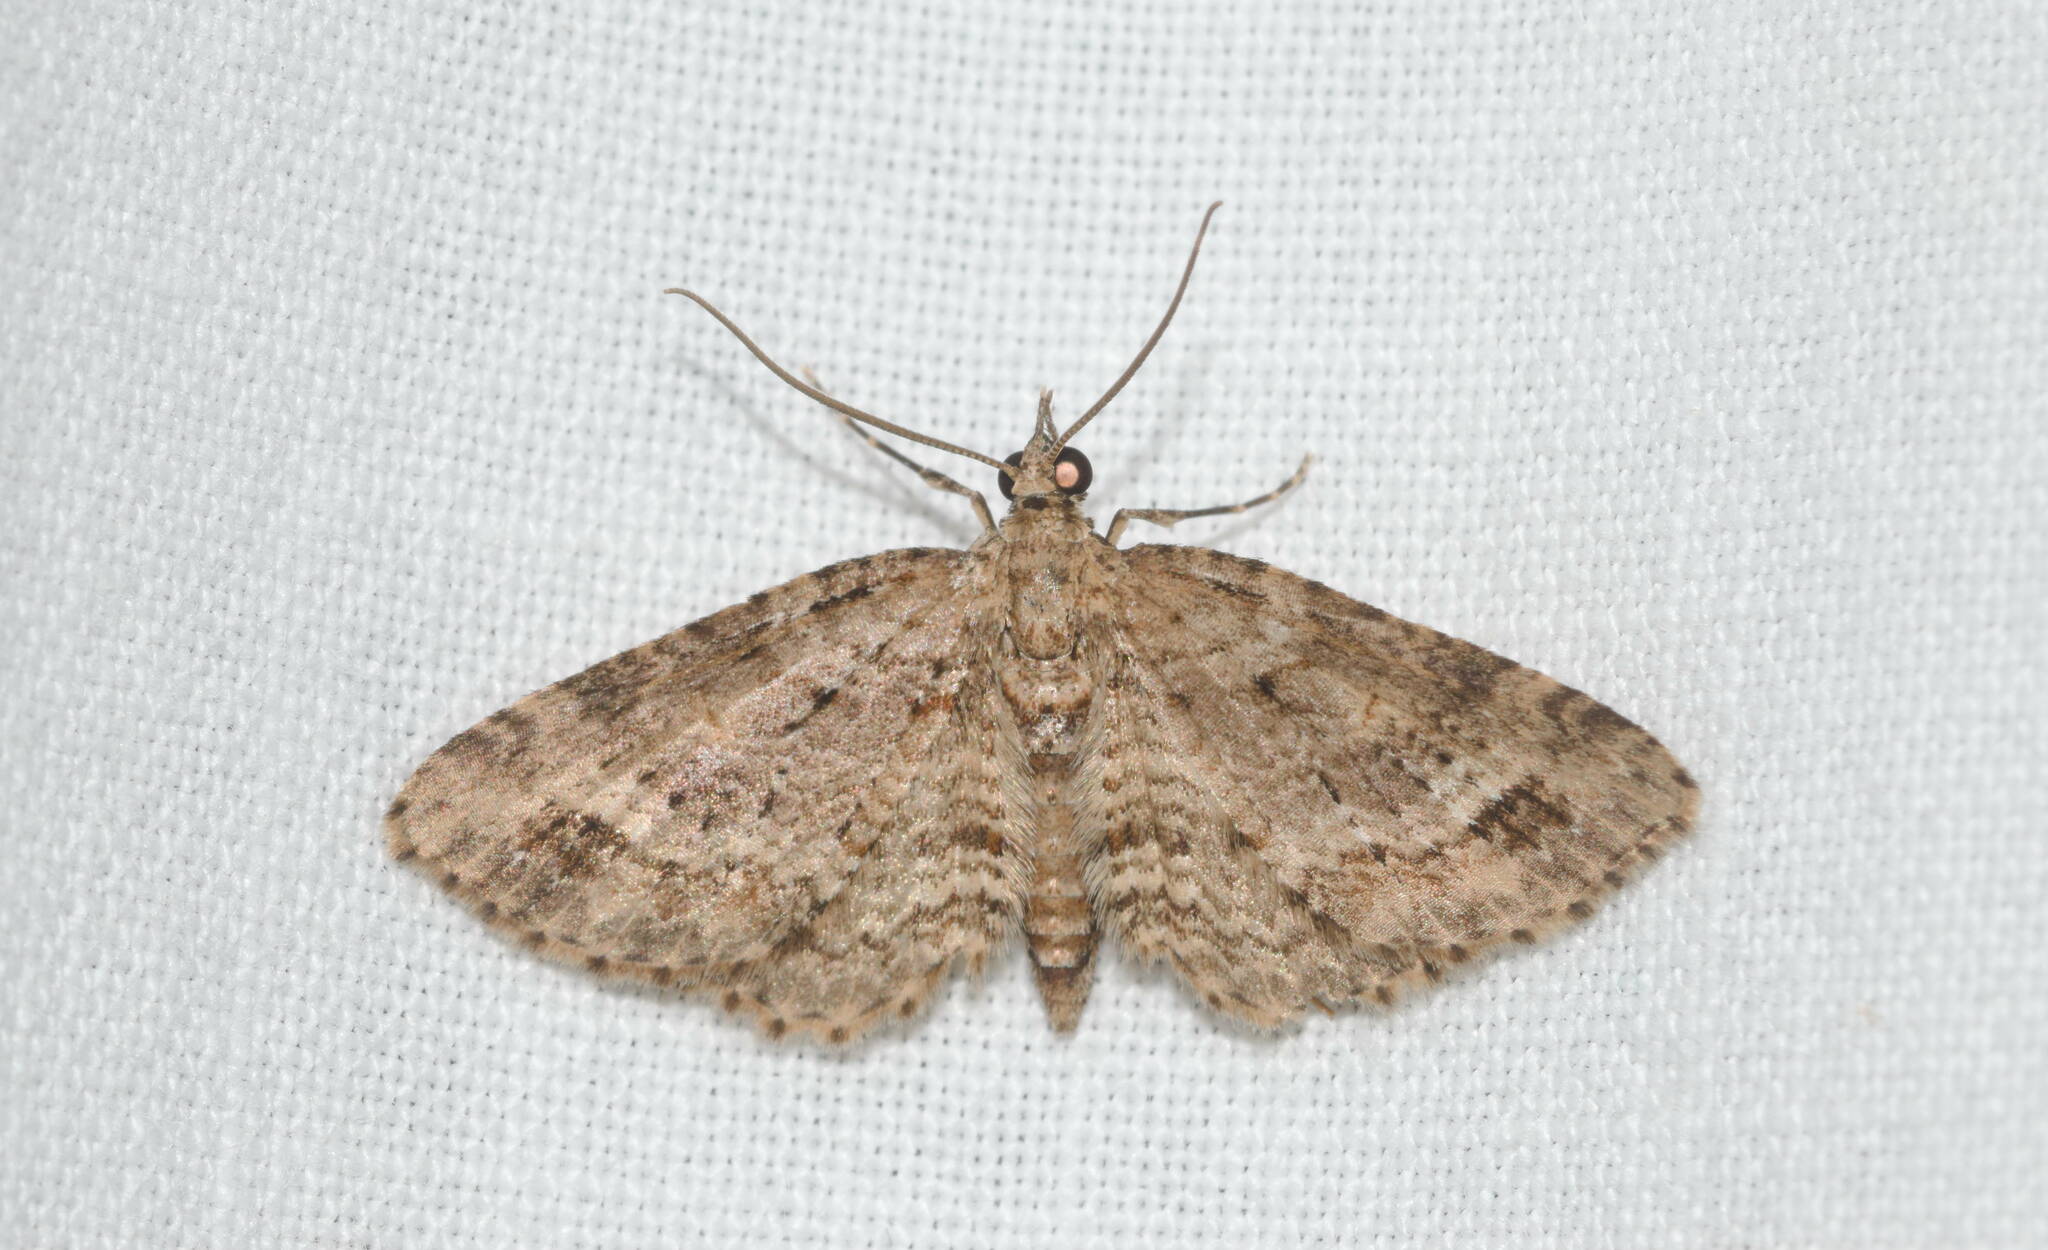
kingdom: Animalia
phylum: Arthropoda
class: Insecta
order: Lepidoptera
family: Geometridae
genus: Eupithecia
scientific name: Eupithecia monticolens
